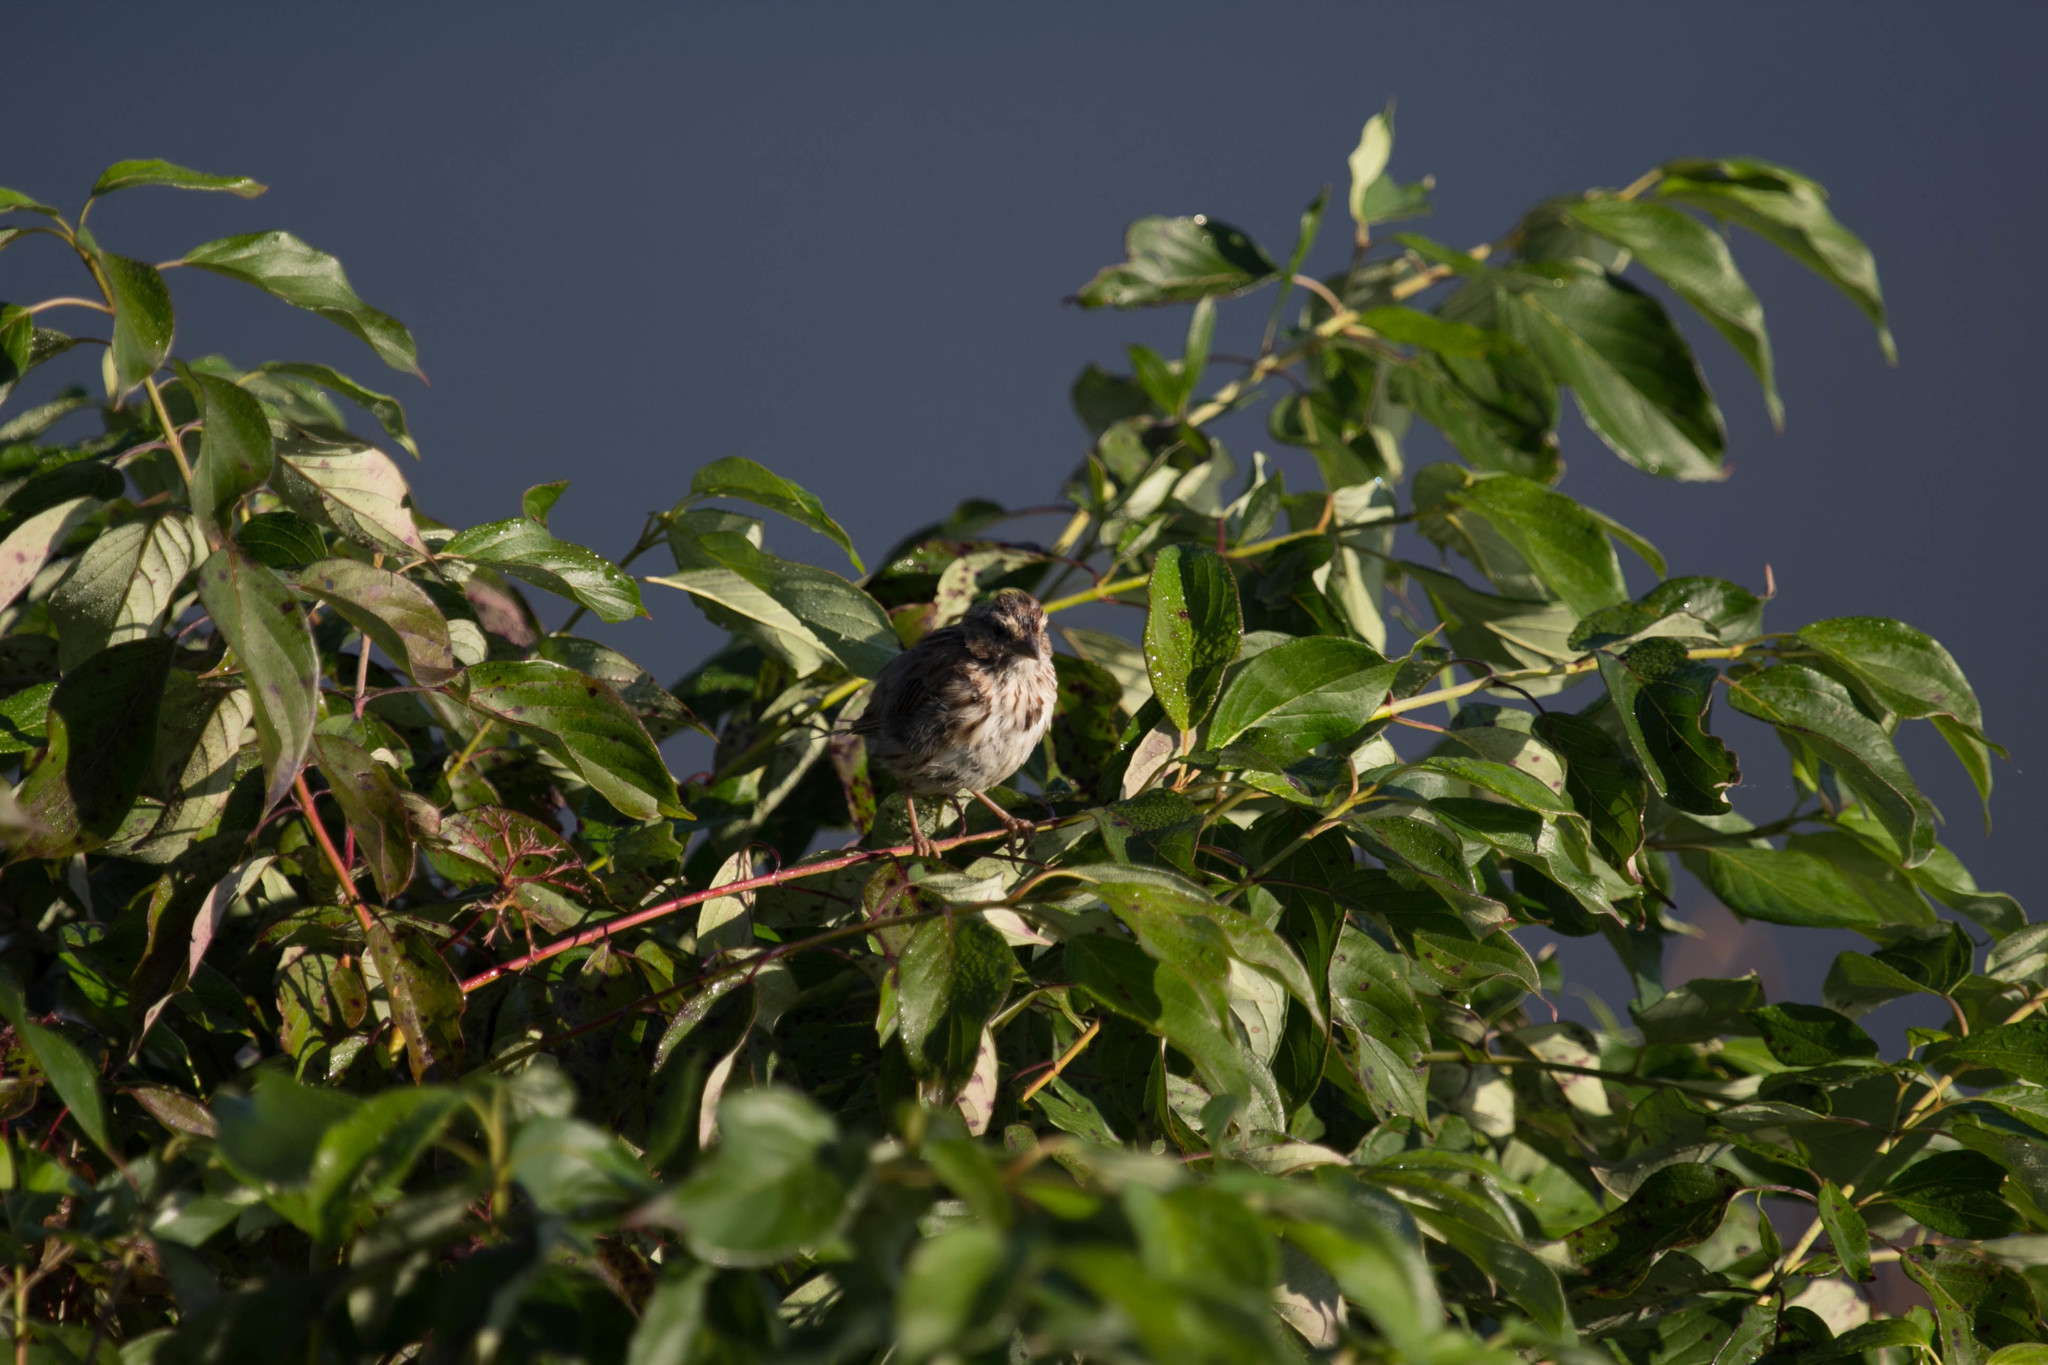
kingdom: Animalia
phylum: Chordata
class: Aves
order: Passeriformes
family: Passerellidae
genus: Melospiza
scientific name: Melospiza melodia
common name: Song sparrow
